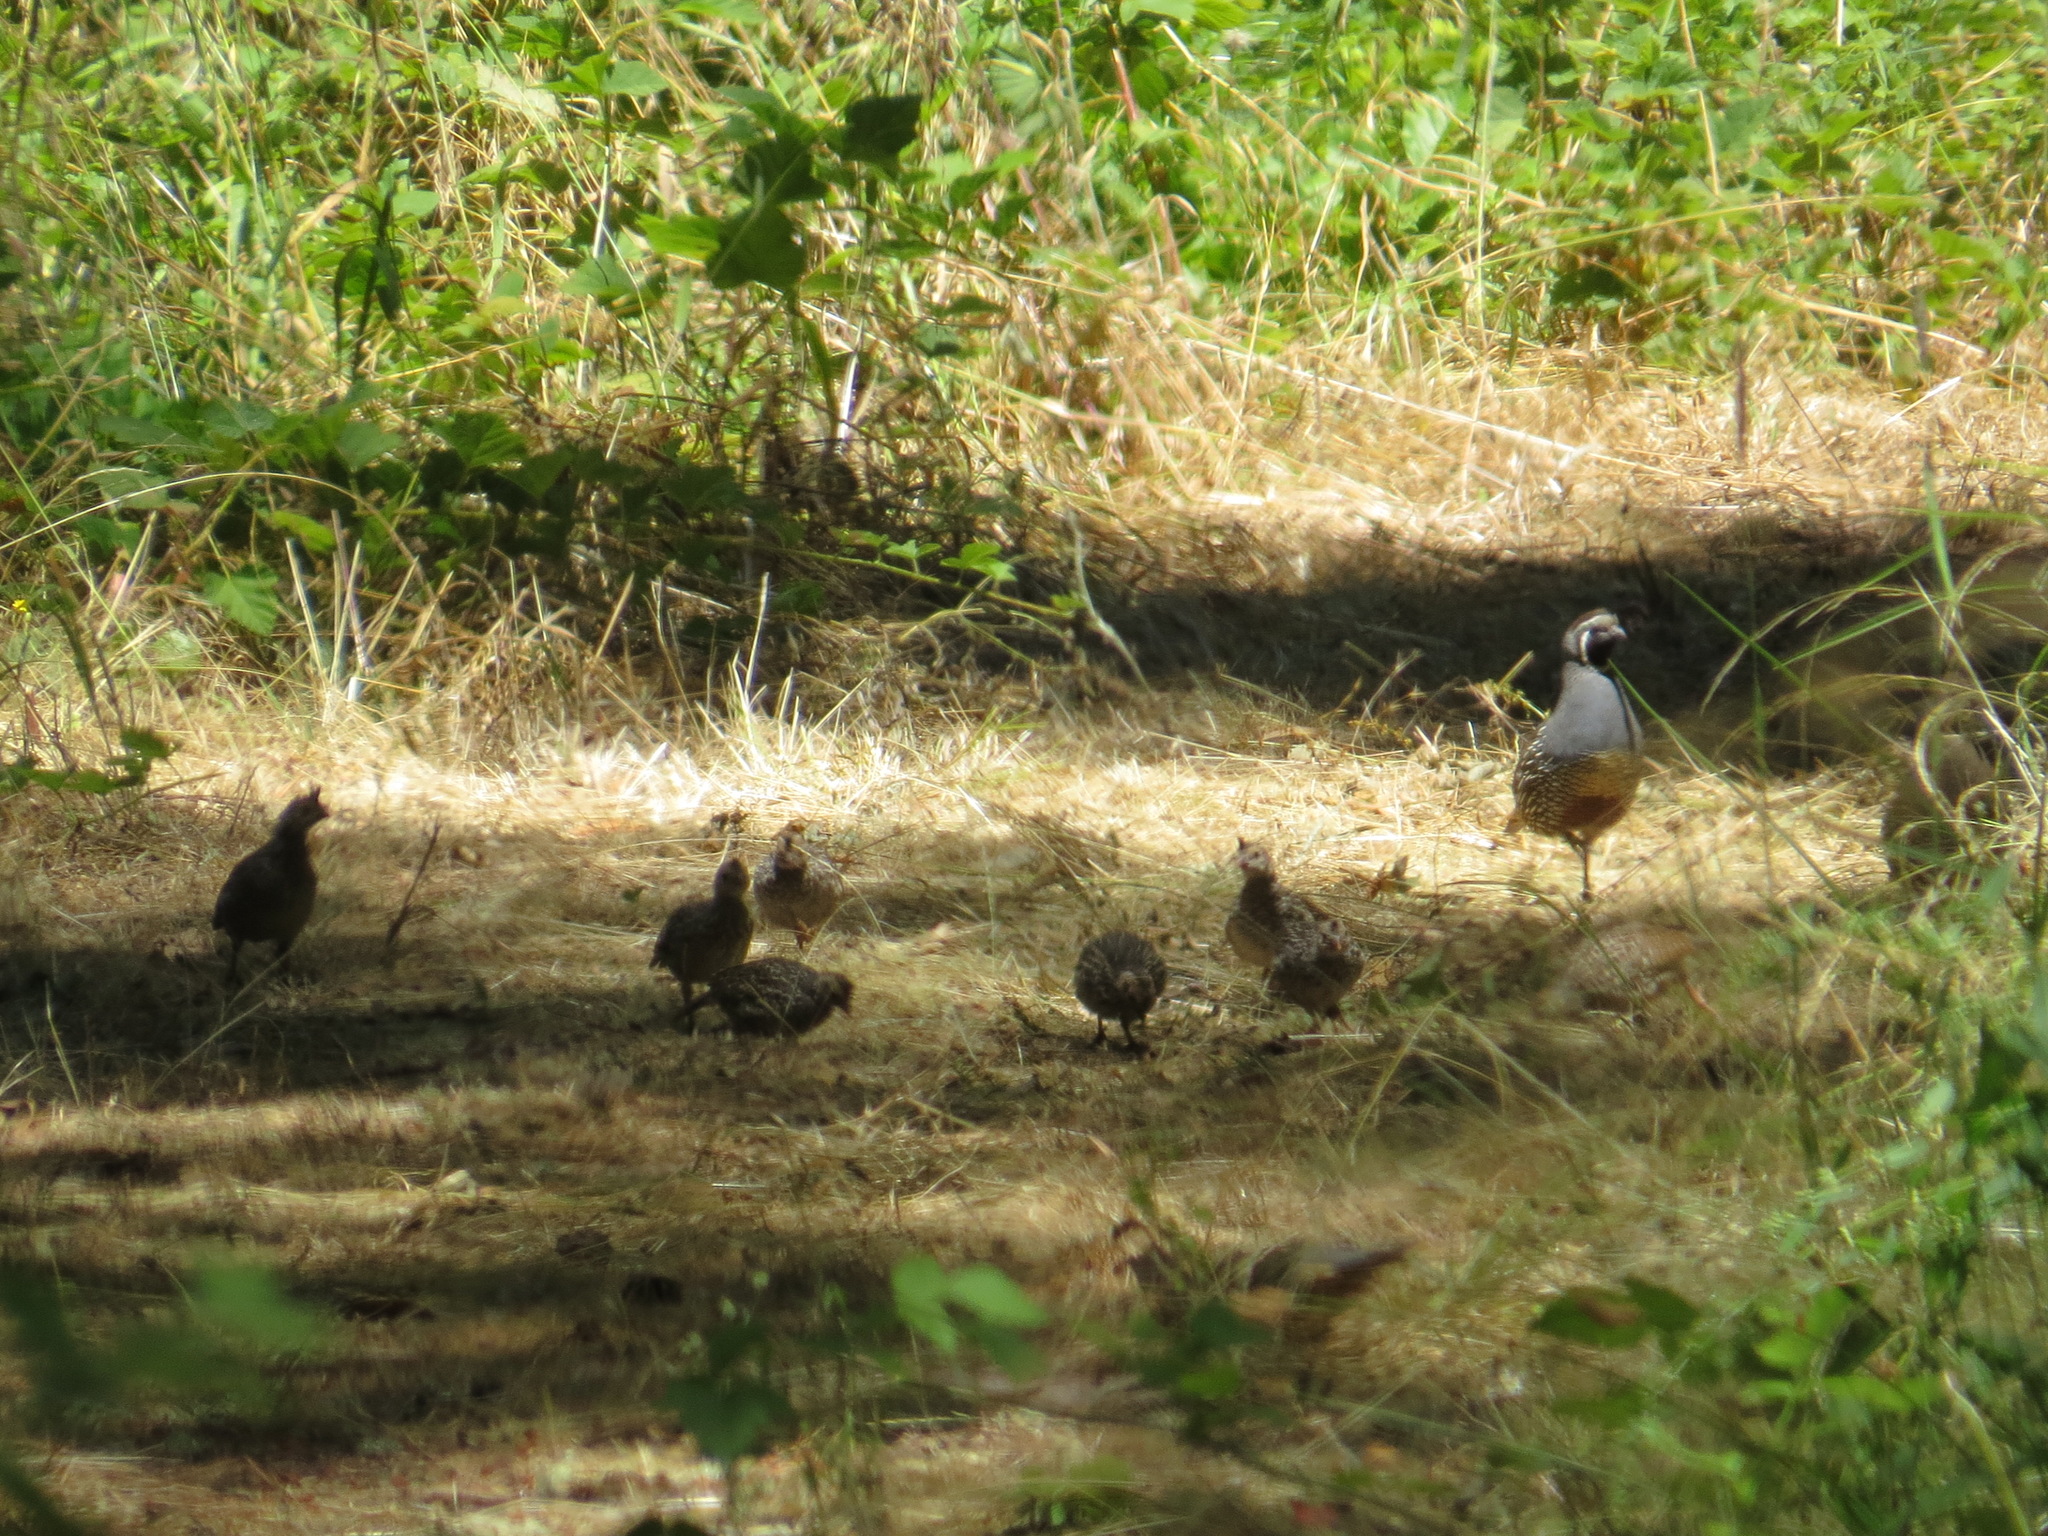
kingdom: Animalia
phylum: Chordata
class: Aves
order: Galliformes
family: Odontophoridae
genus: Callipepla
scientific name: Callipepla californica
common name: California quail
